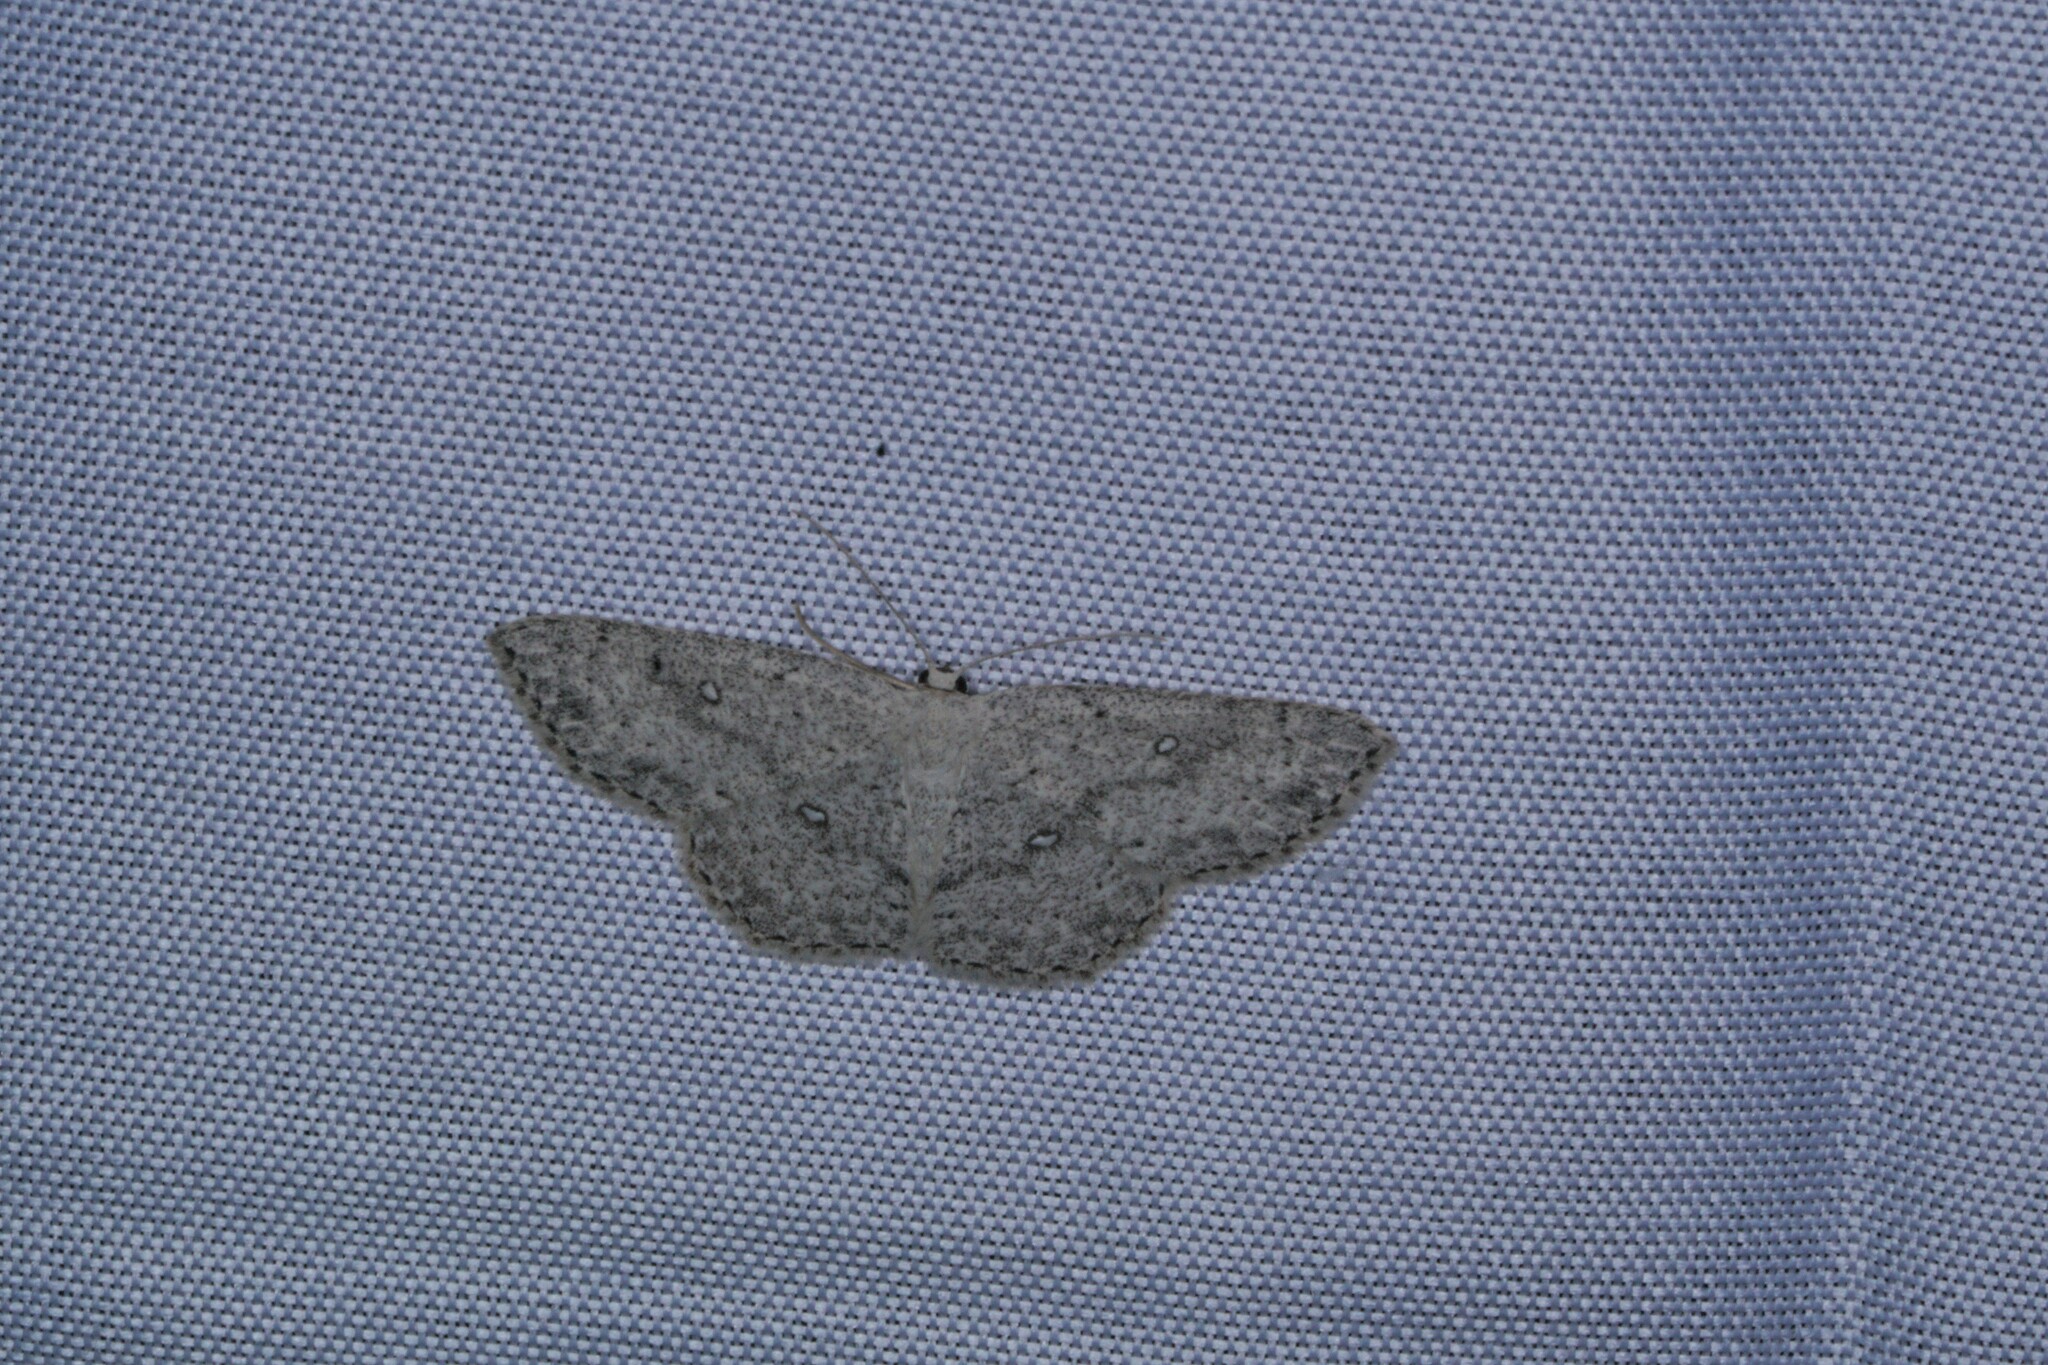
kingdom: Animalia
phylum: Arthropoda
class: Insecta
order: Lepidoptera
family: Geometridae
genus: Cyclophora
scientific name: Cyclophora pendulinaria
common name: Sweet fern geometer
